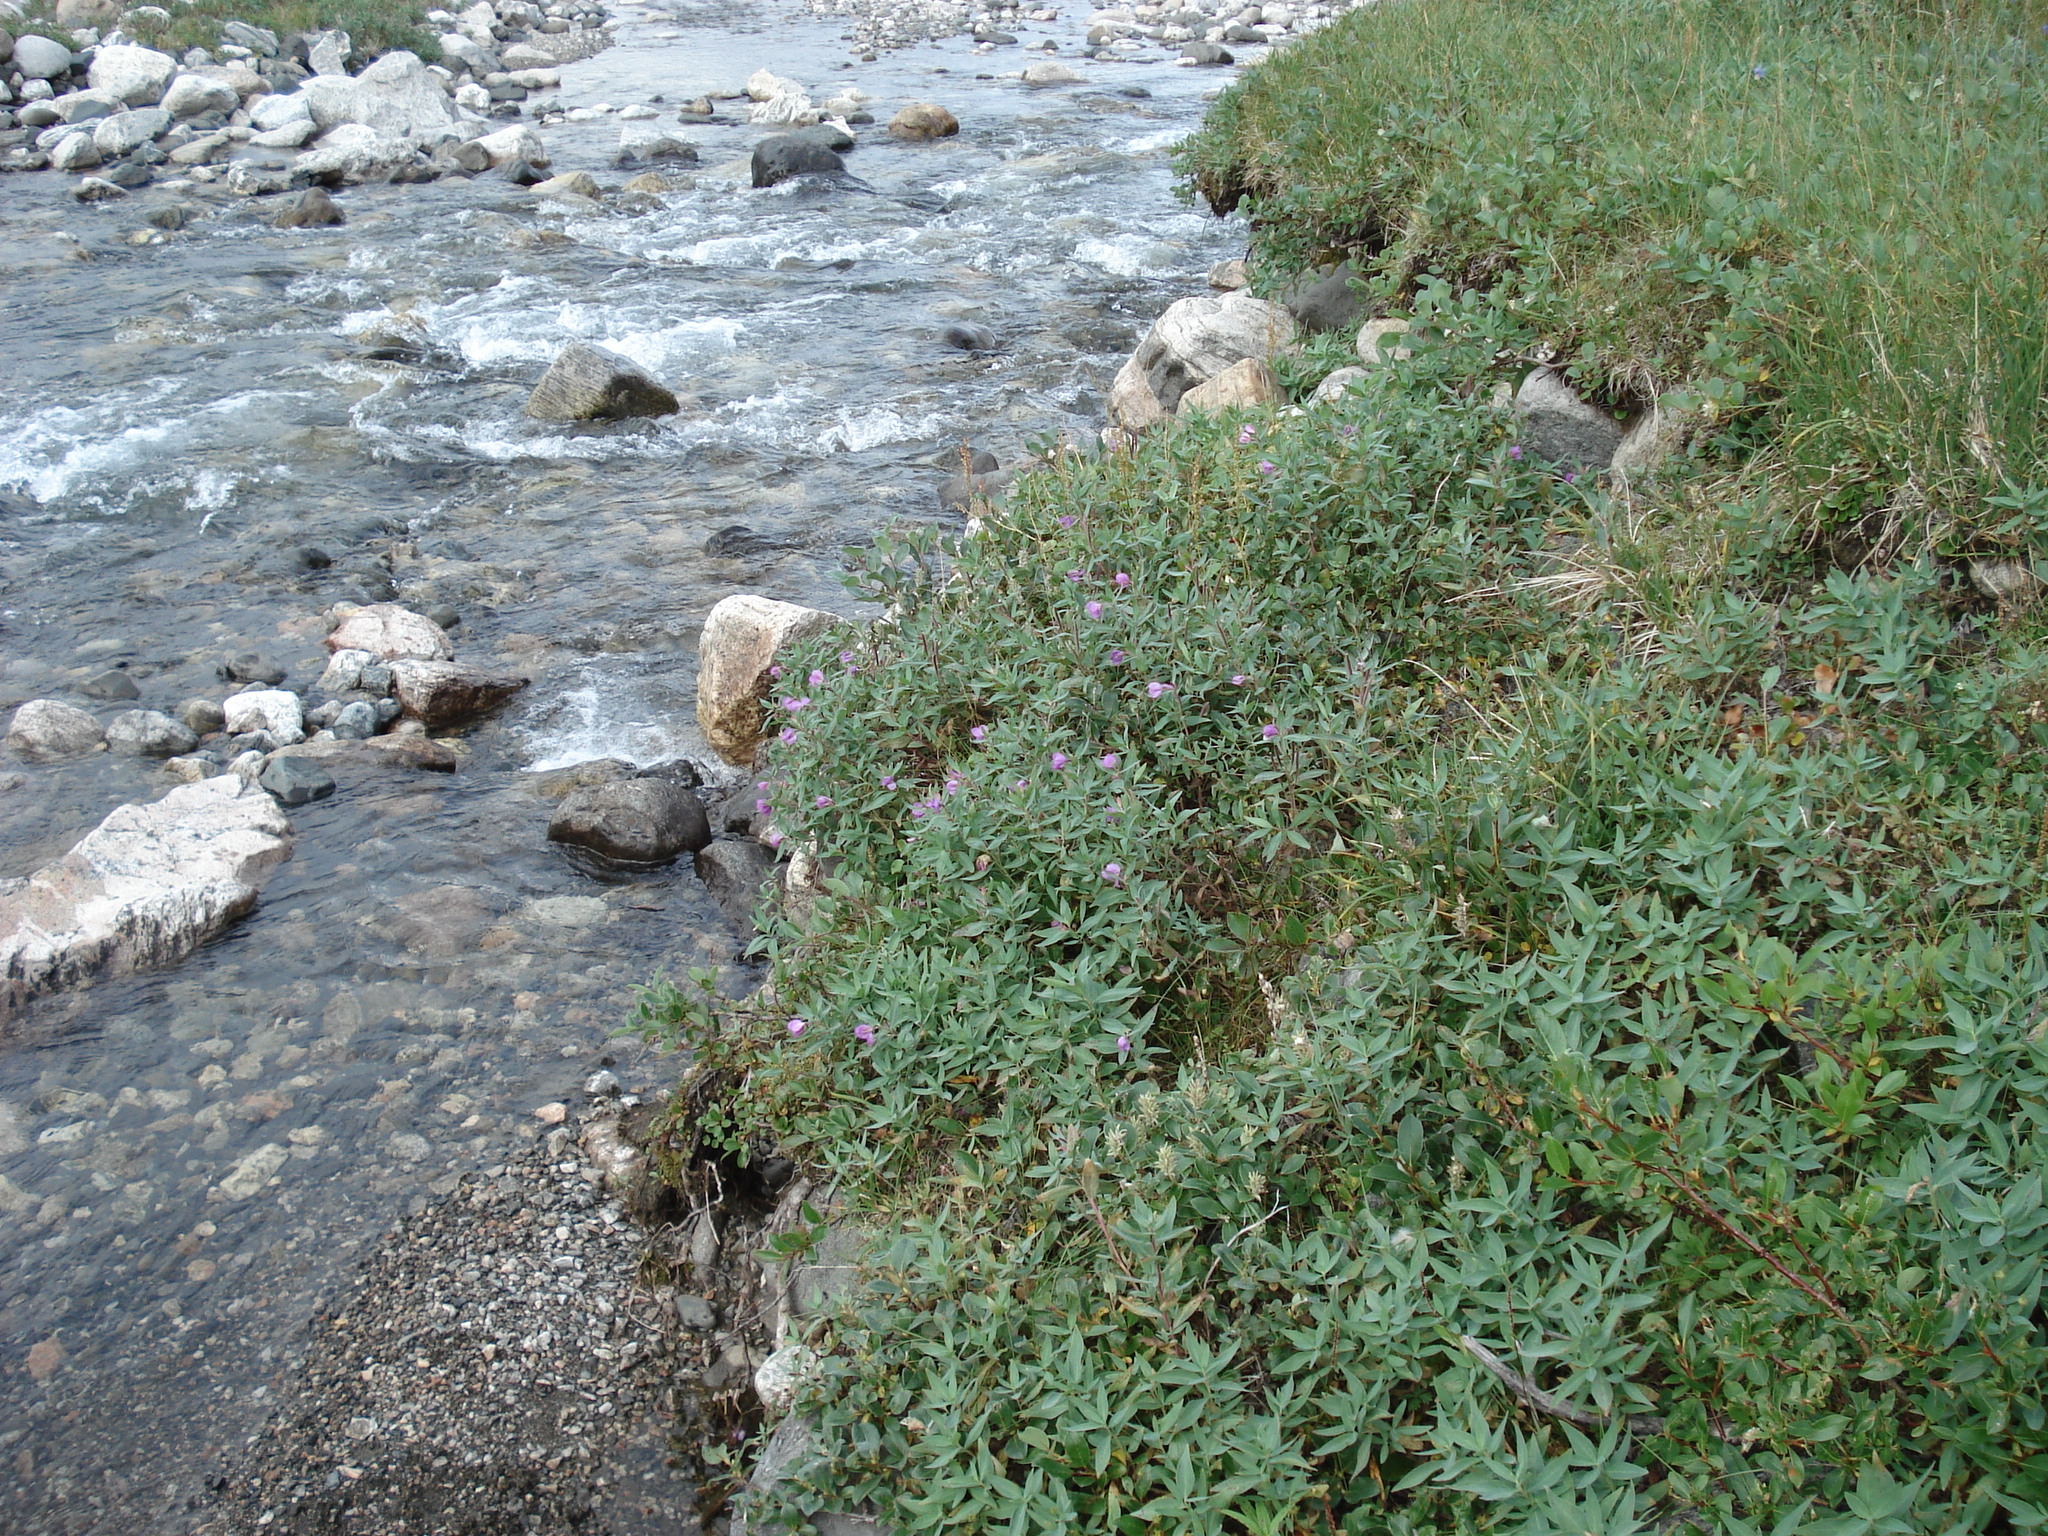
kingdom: Plantae
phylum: Tracheophyta
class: Magnoliopsida
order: Myrtales
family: Onagraceae
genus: Chamaenerion
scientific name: Chamaenerion latifolium
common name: Dwarf fireweed
